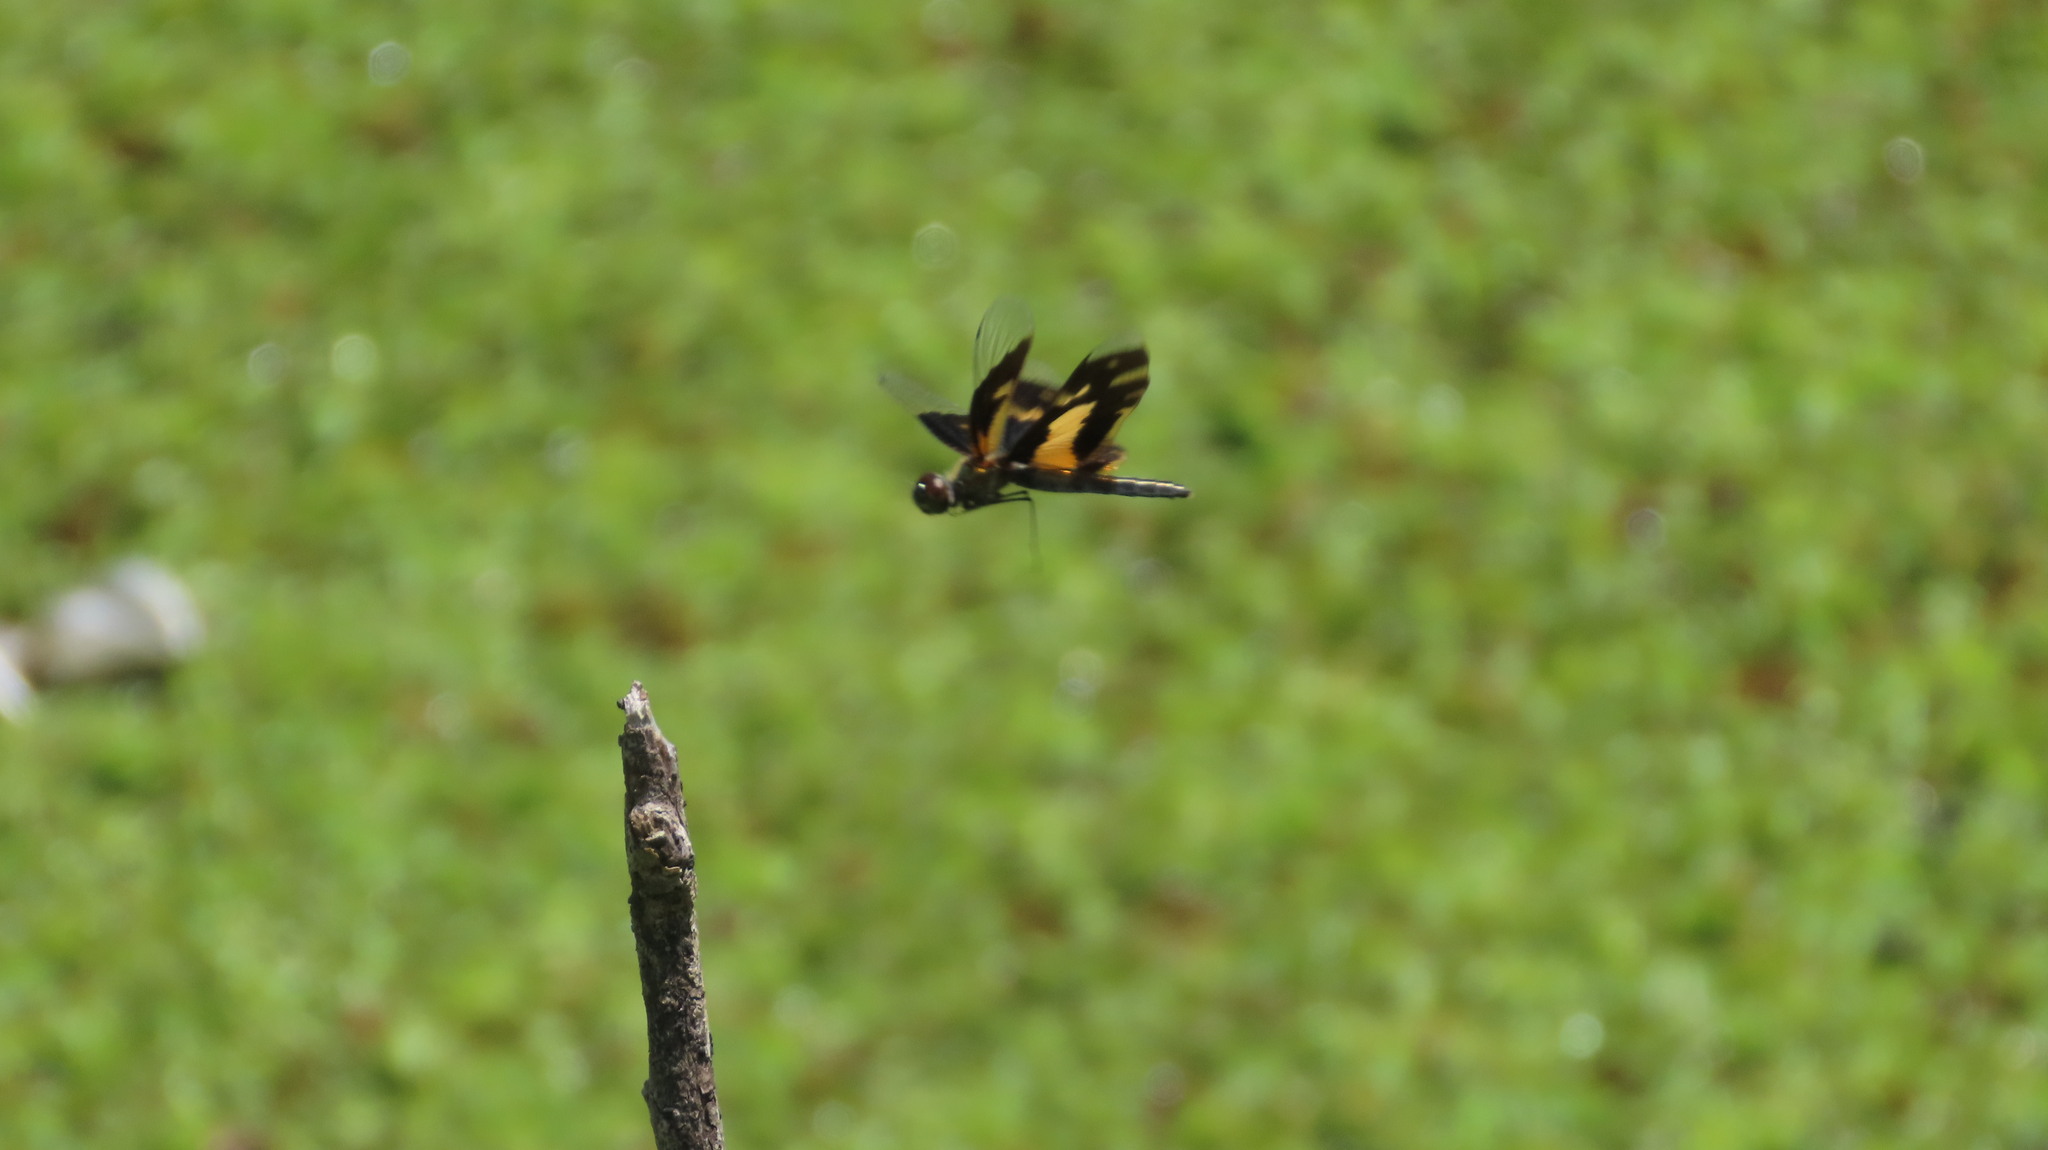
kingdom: Animalia
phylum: Arthropoda
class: Insecta
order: Odonata
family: Libellulidae
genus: Rhyothemis
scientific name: Rhyothemis variegata
